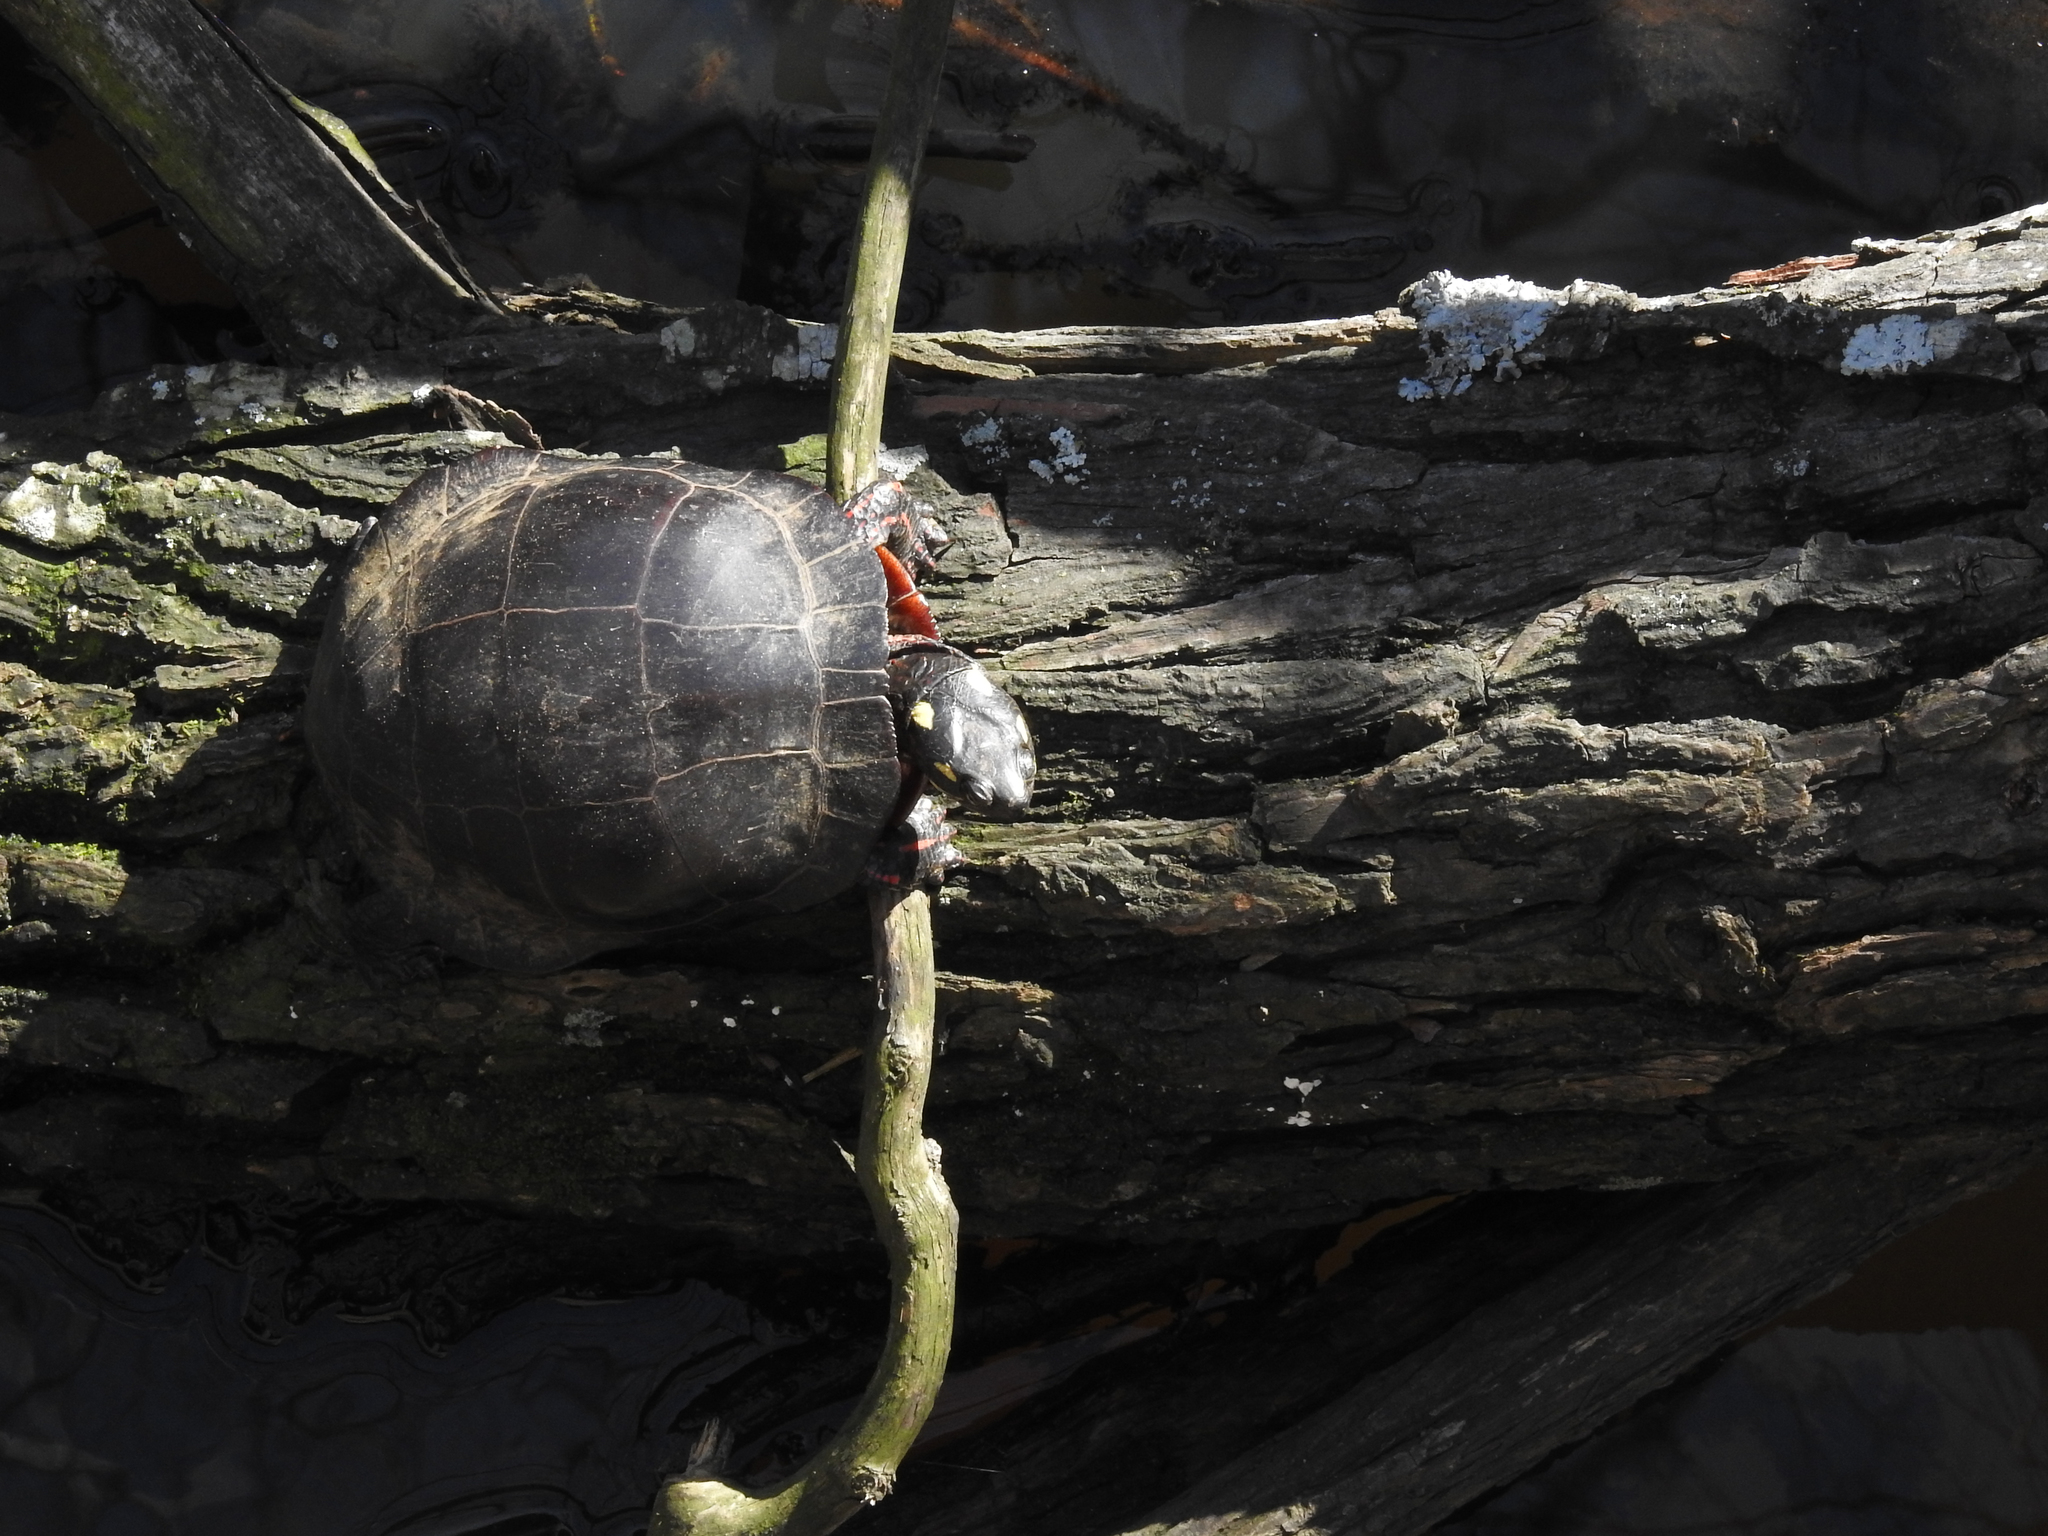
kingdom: Animalia
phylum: Chordata
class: Testudines
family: Emydidae
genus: Chrysemys
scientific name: Chrysemys picta
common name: Painted turtle
